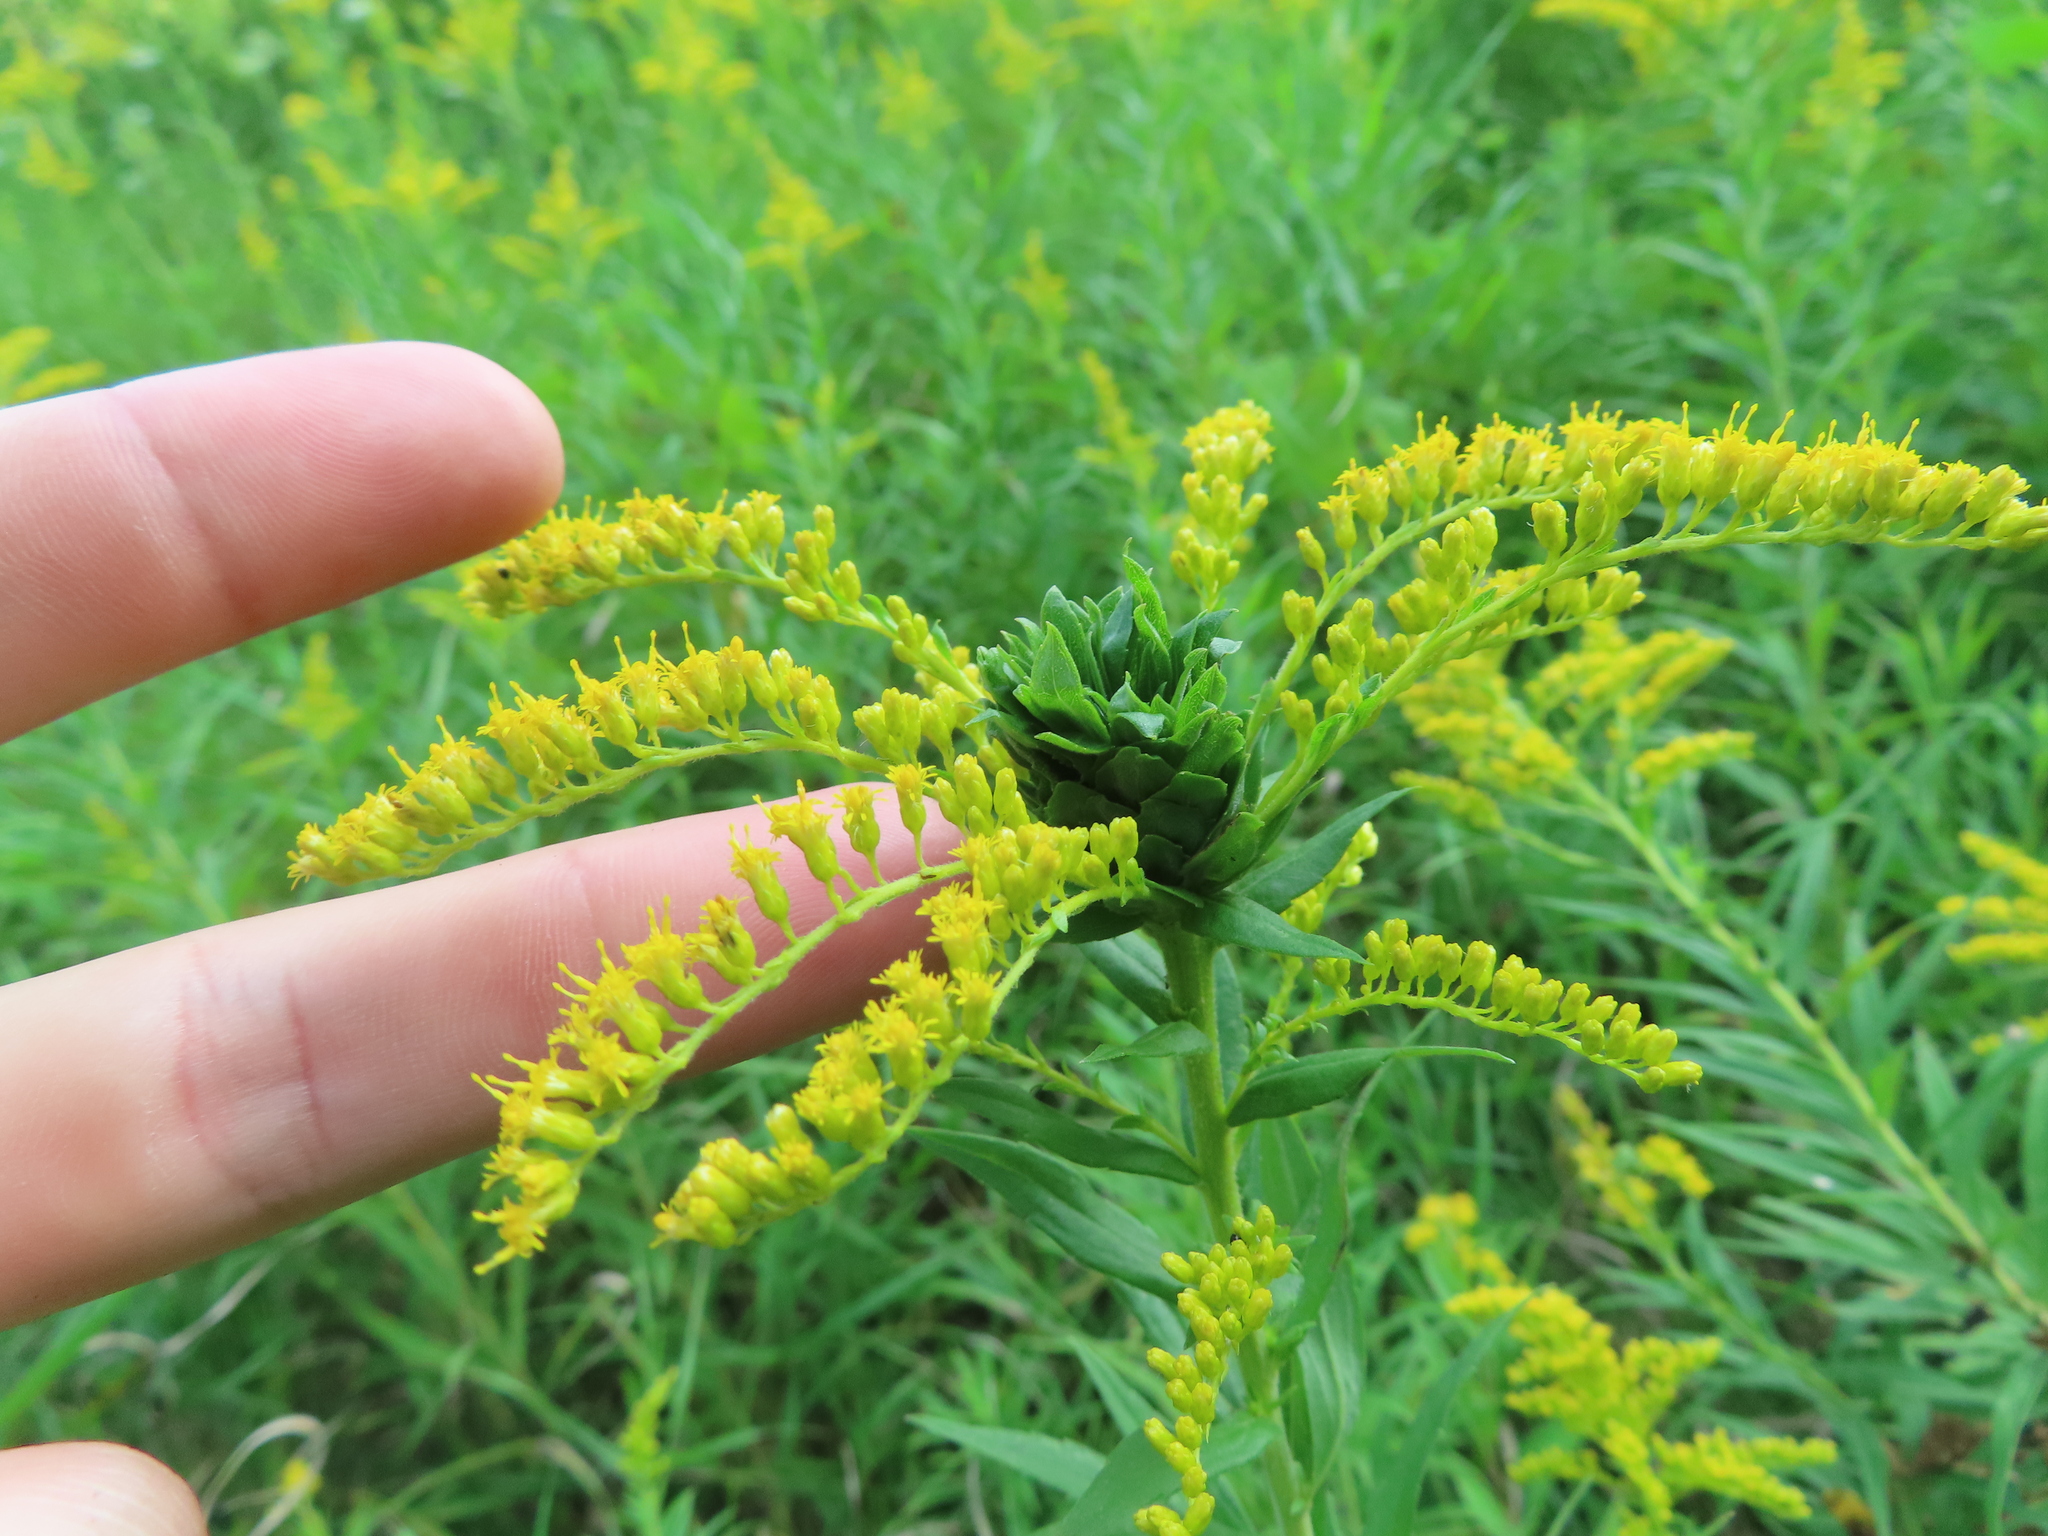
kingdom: Animalia
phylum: Arthropoda
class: Insecta
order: Diptera
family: Cecidomyiidae
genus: Rhopalomyia
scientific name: Rhopalomyia solidaginis
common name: Goldenrod bunch gall midge
